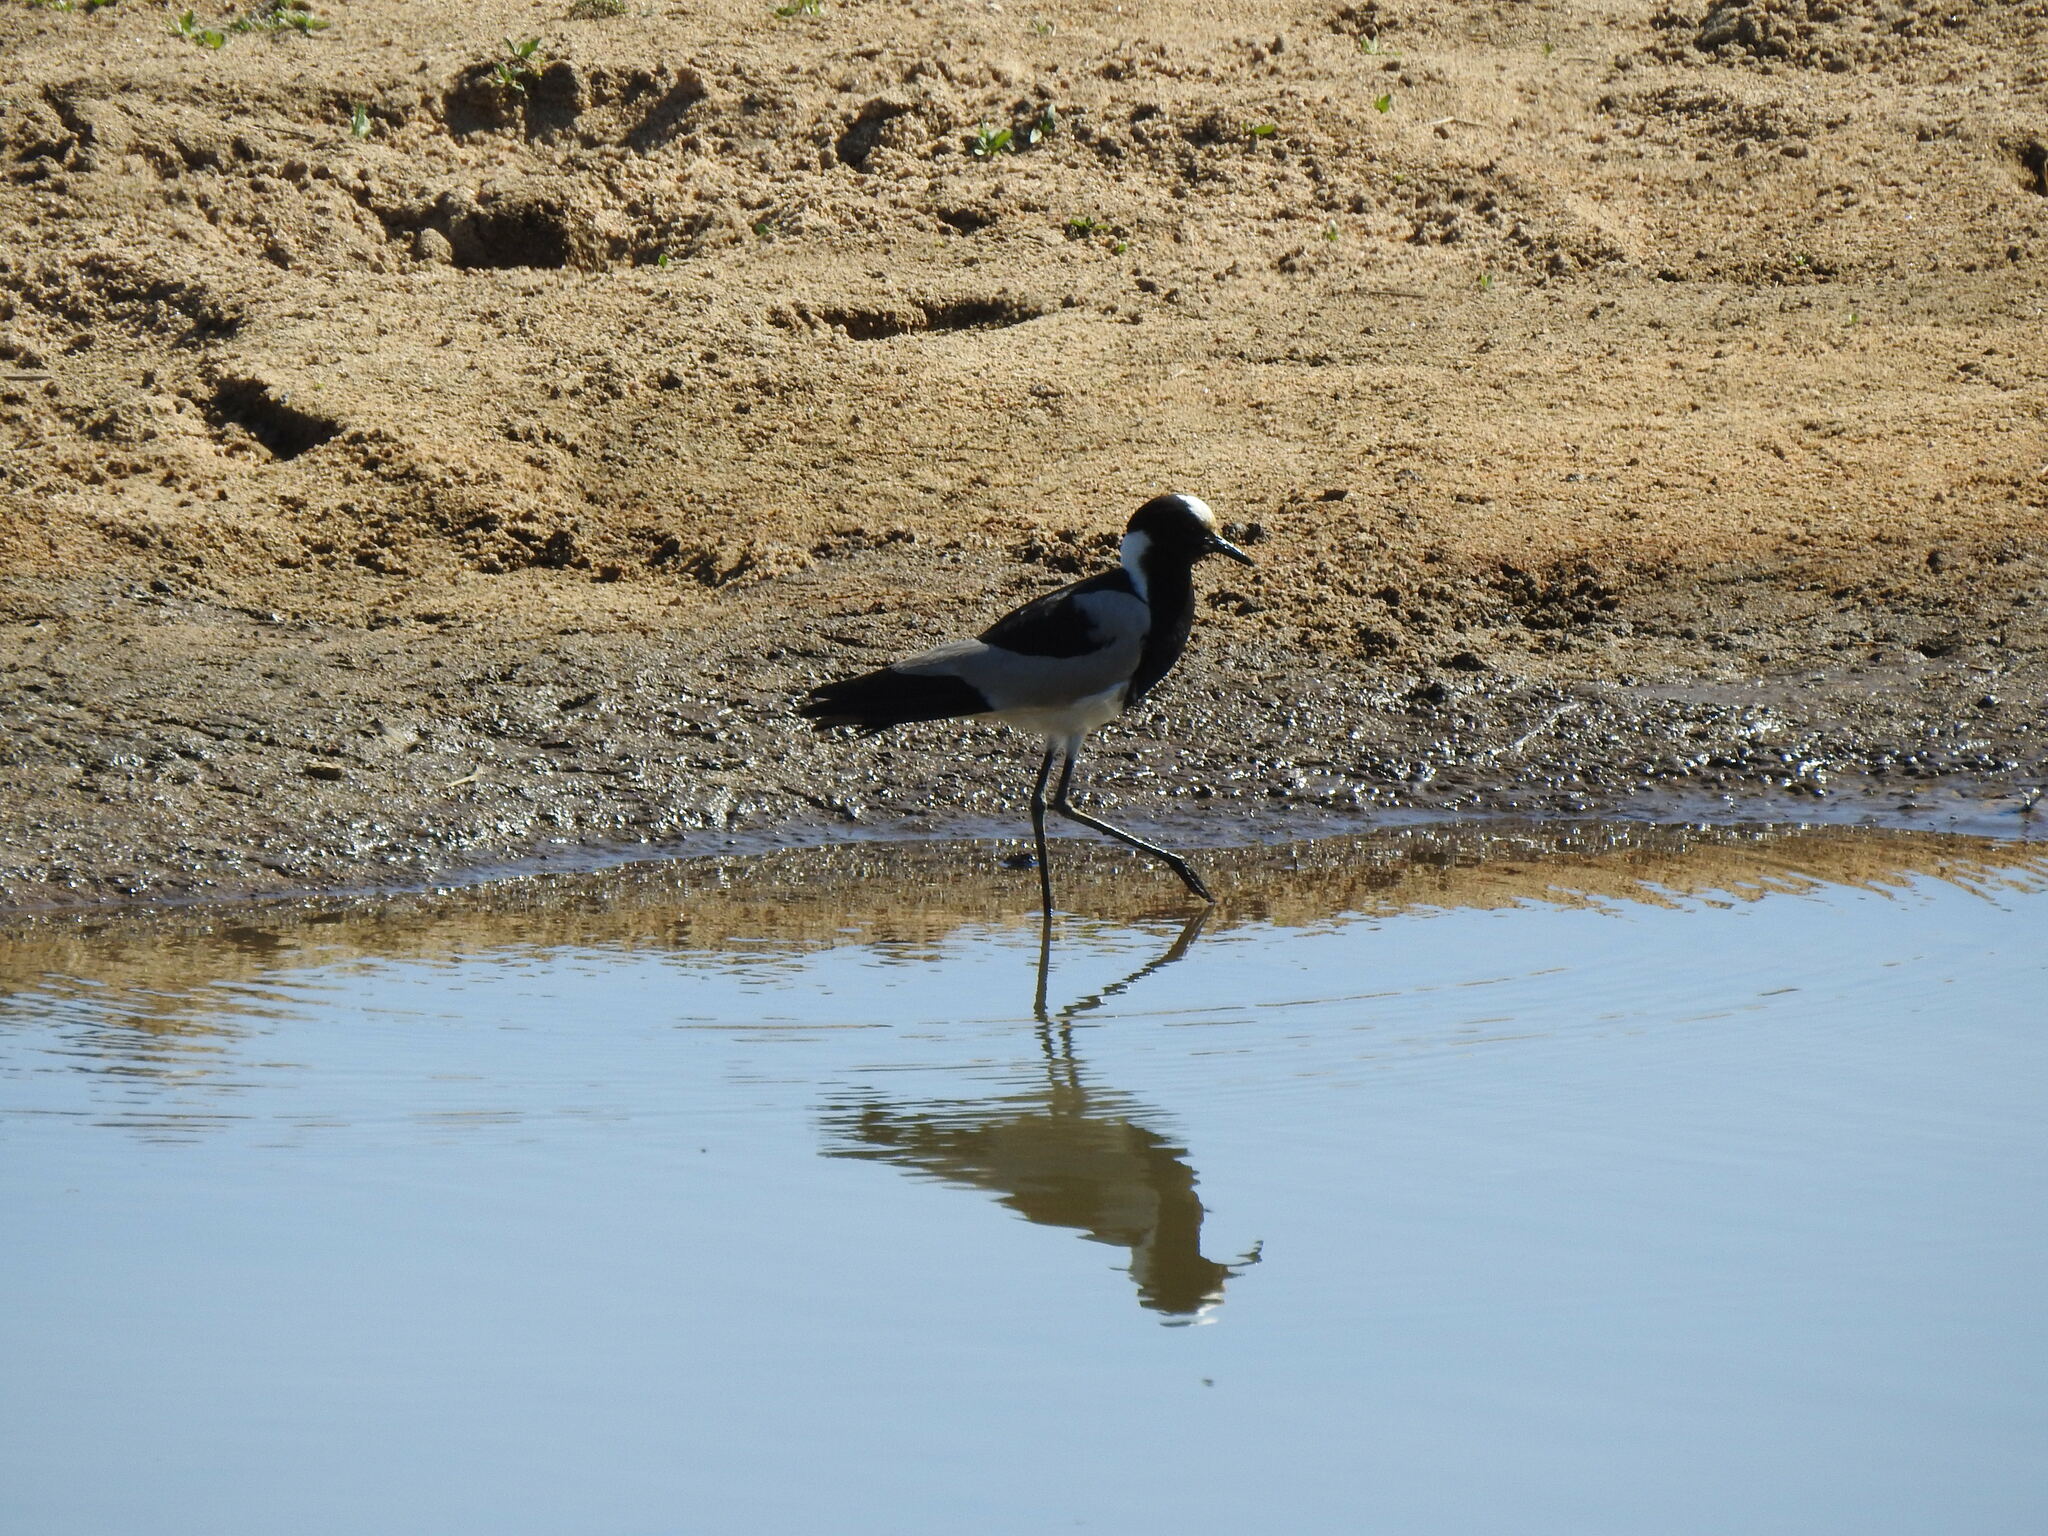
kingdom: Animalia
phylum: Chordata
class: Aves
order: Charadriiformes
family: Charadriidae
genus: Vanellus
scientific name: Vanellus armatus
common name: Blacksmith lapwing
